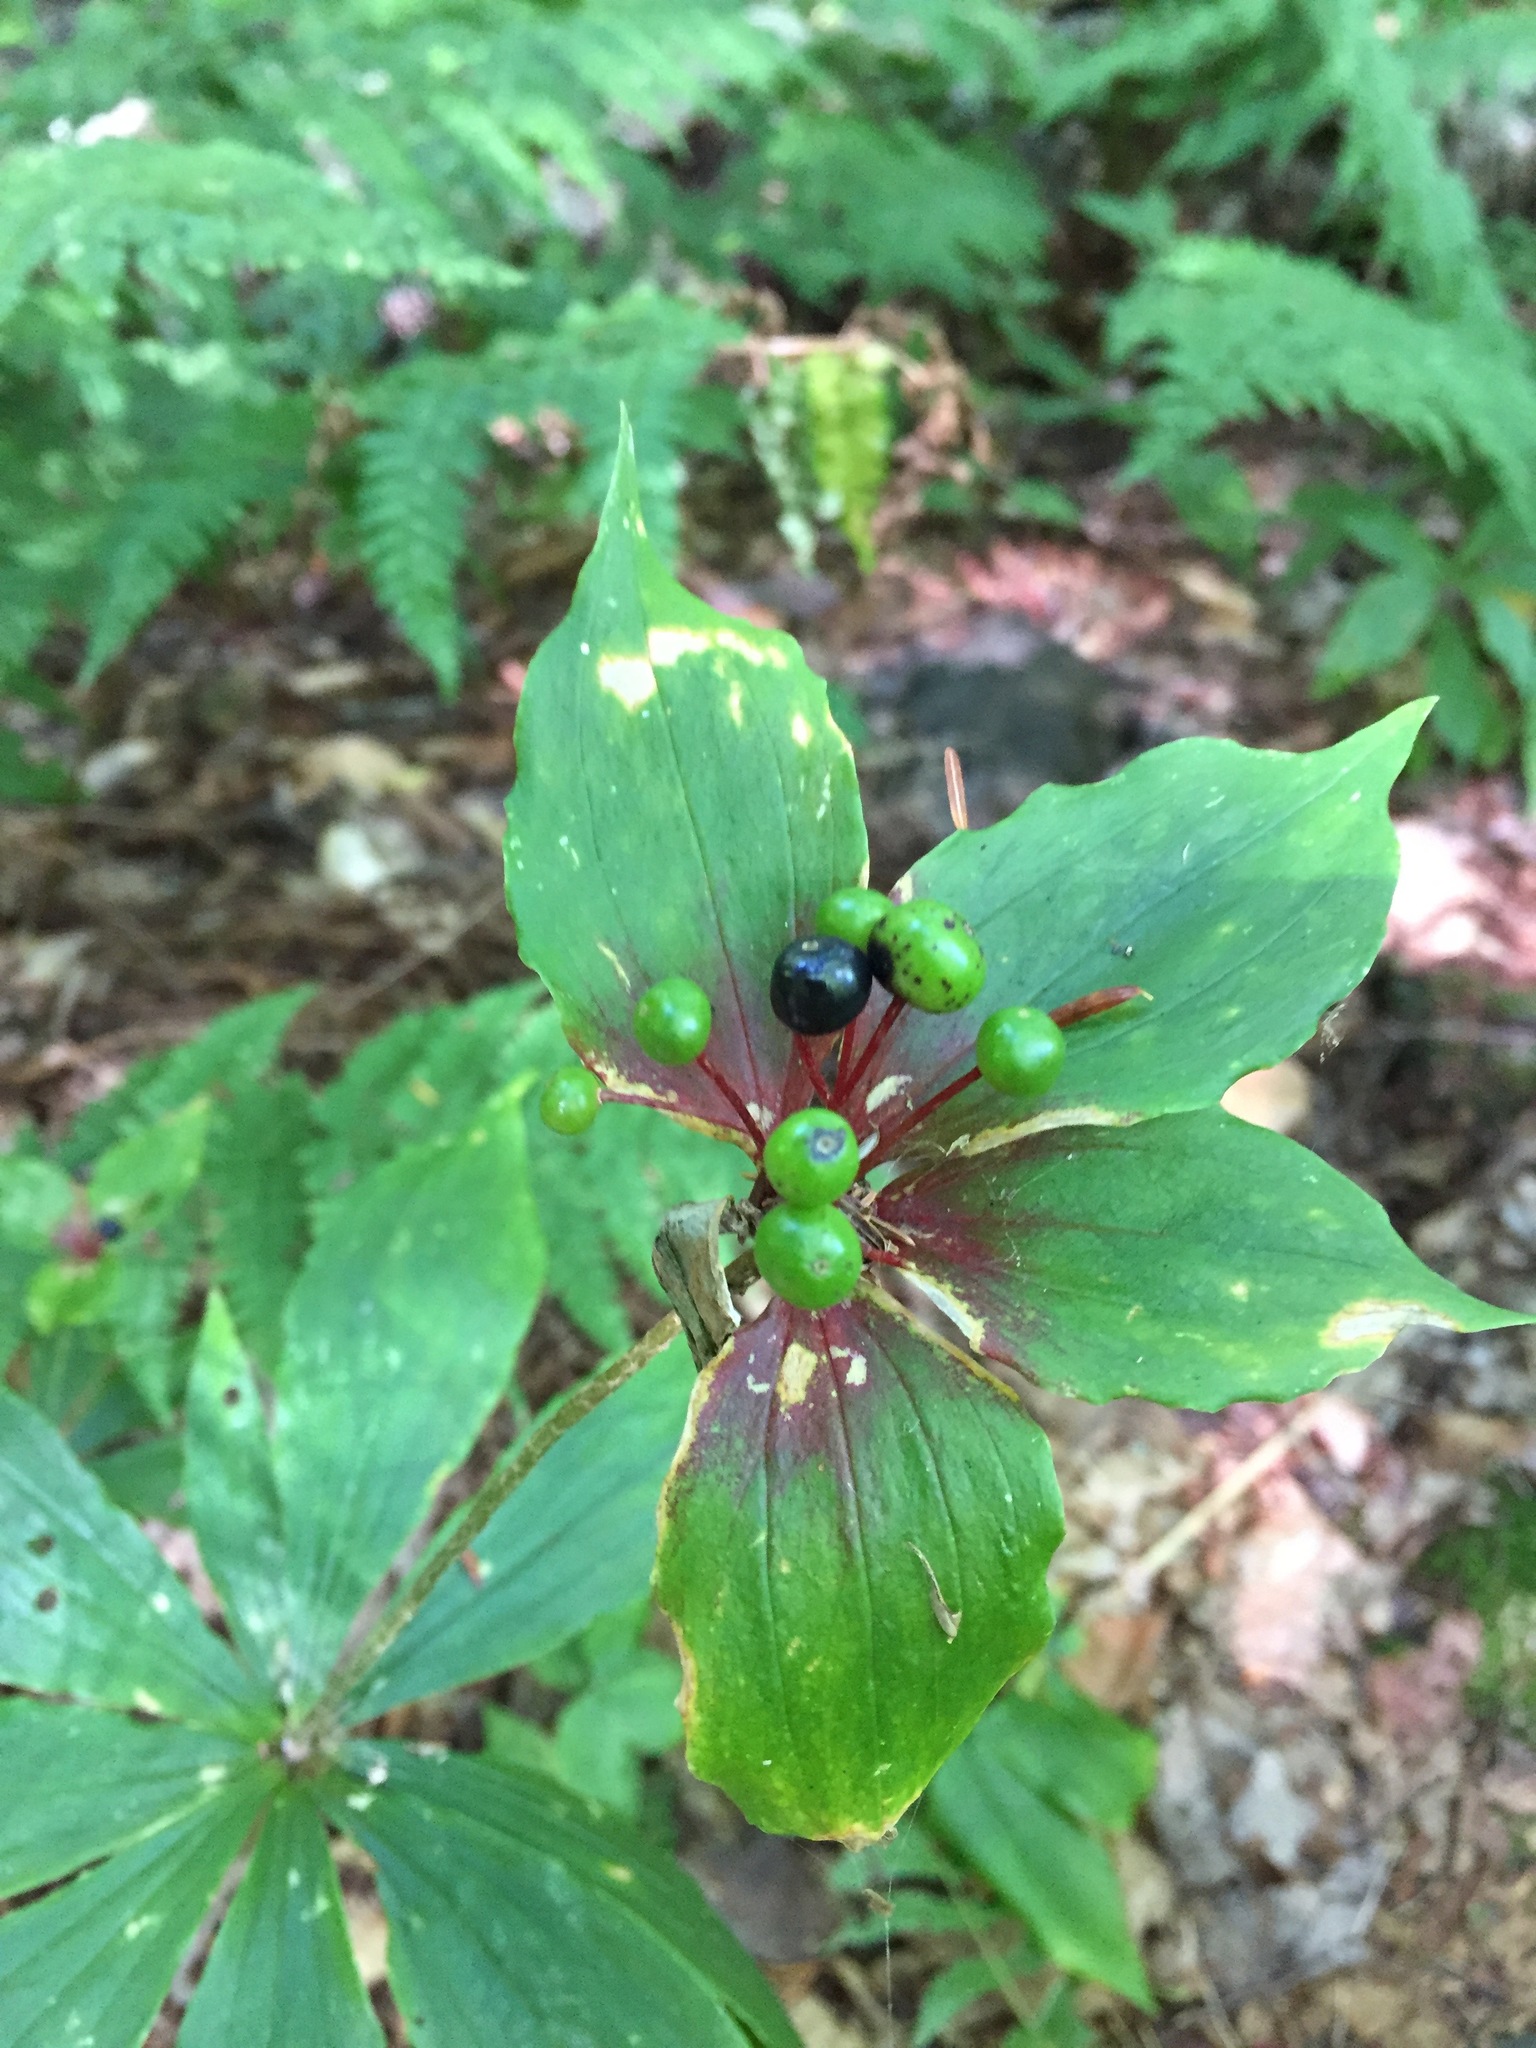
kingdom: Plantae
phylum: Tracheophyta
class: Liliopsida
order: Liliales
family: Liliaceae
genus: Medeola
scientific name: Medeola virginiana
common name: Indian cucumber-root
